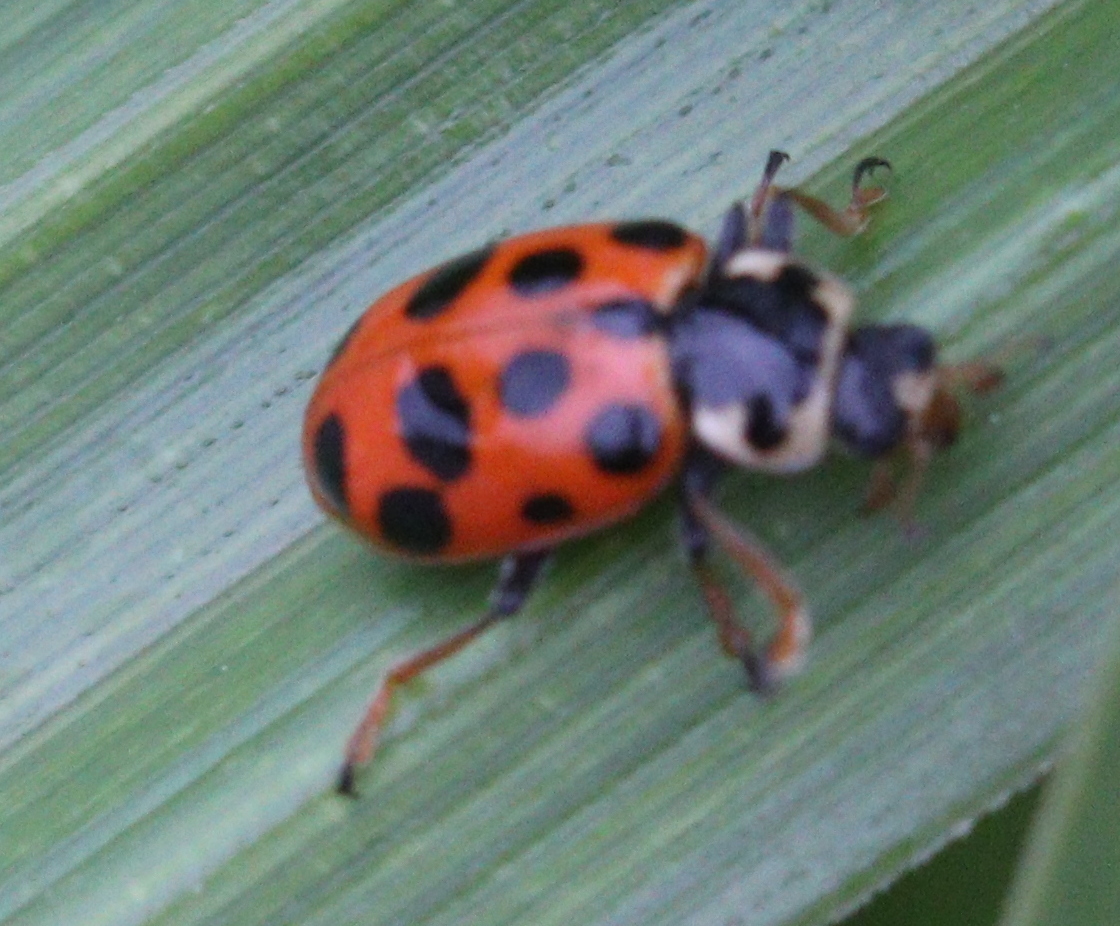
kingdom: Animalia
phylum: Arthropoda
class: Insecta
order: Coleoptera
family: Coccinellidae
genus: Hippodamia
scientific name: Hippodamia tredecimpunctata
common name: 13-spot ladybird
